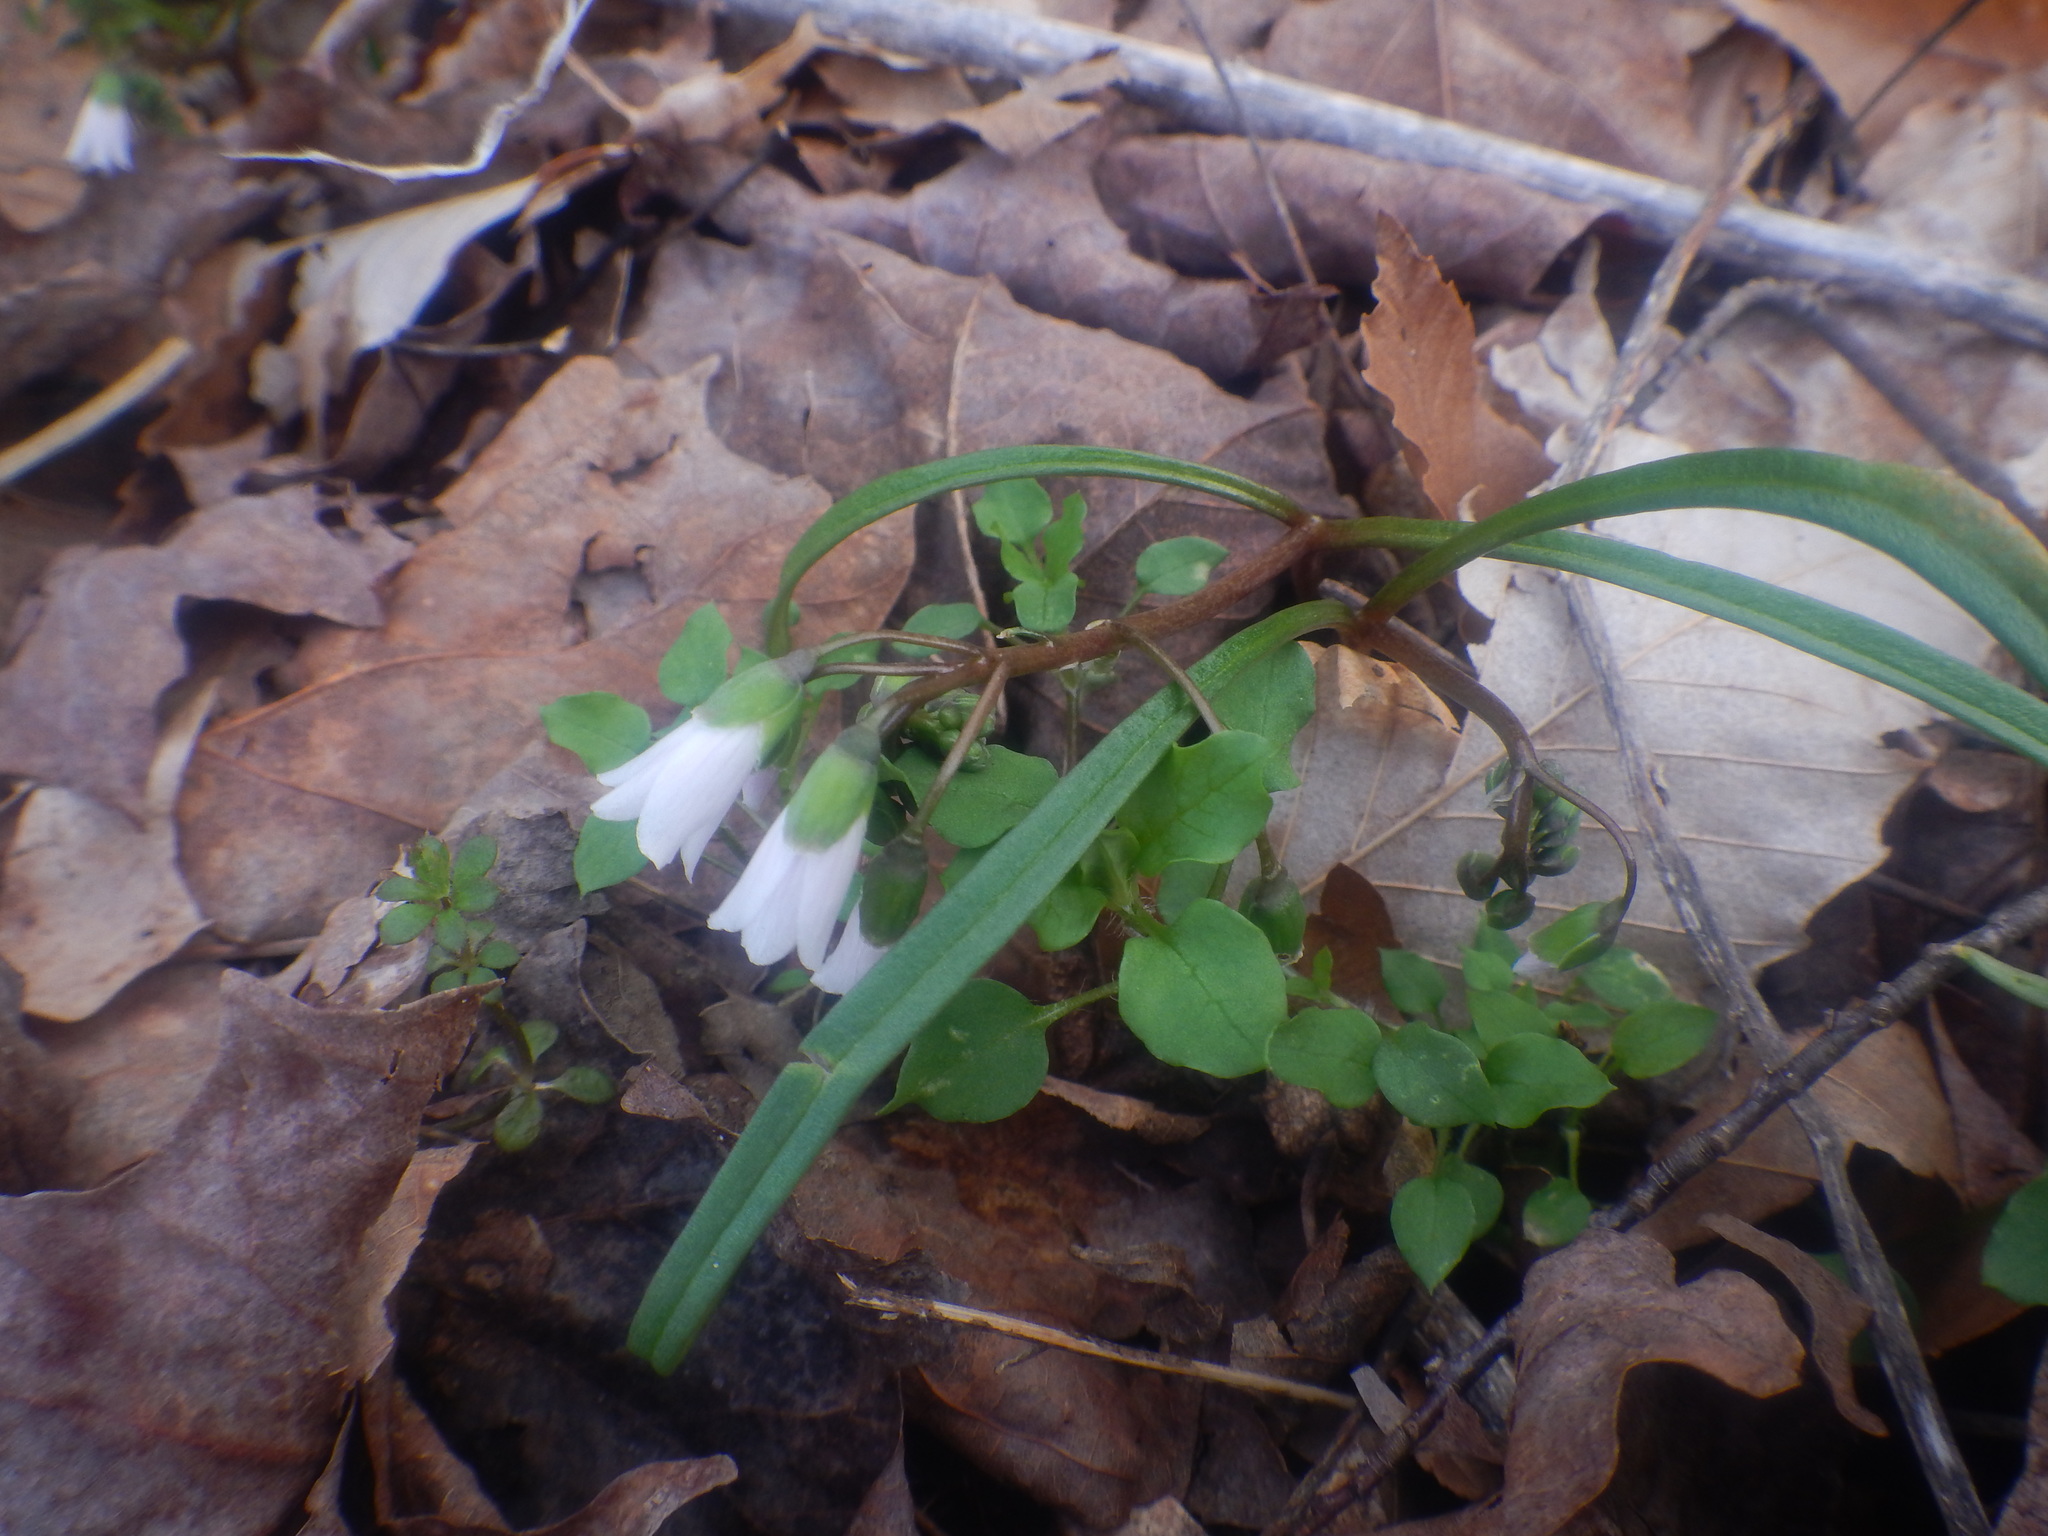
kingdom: Plantae
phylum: Tracheophyta
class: Magnoliopsida
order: Caryophyllales
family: Montiaceae
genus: Claytonia
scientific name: Claytonia virginica
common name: Virginia springbeauty
